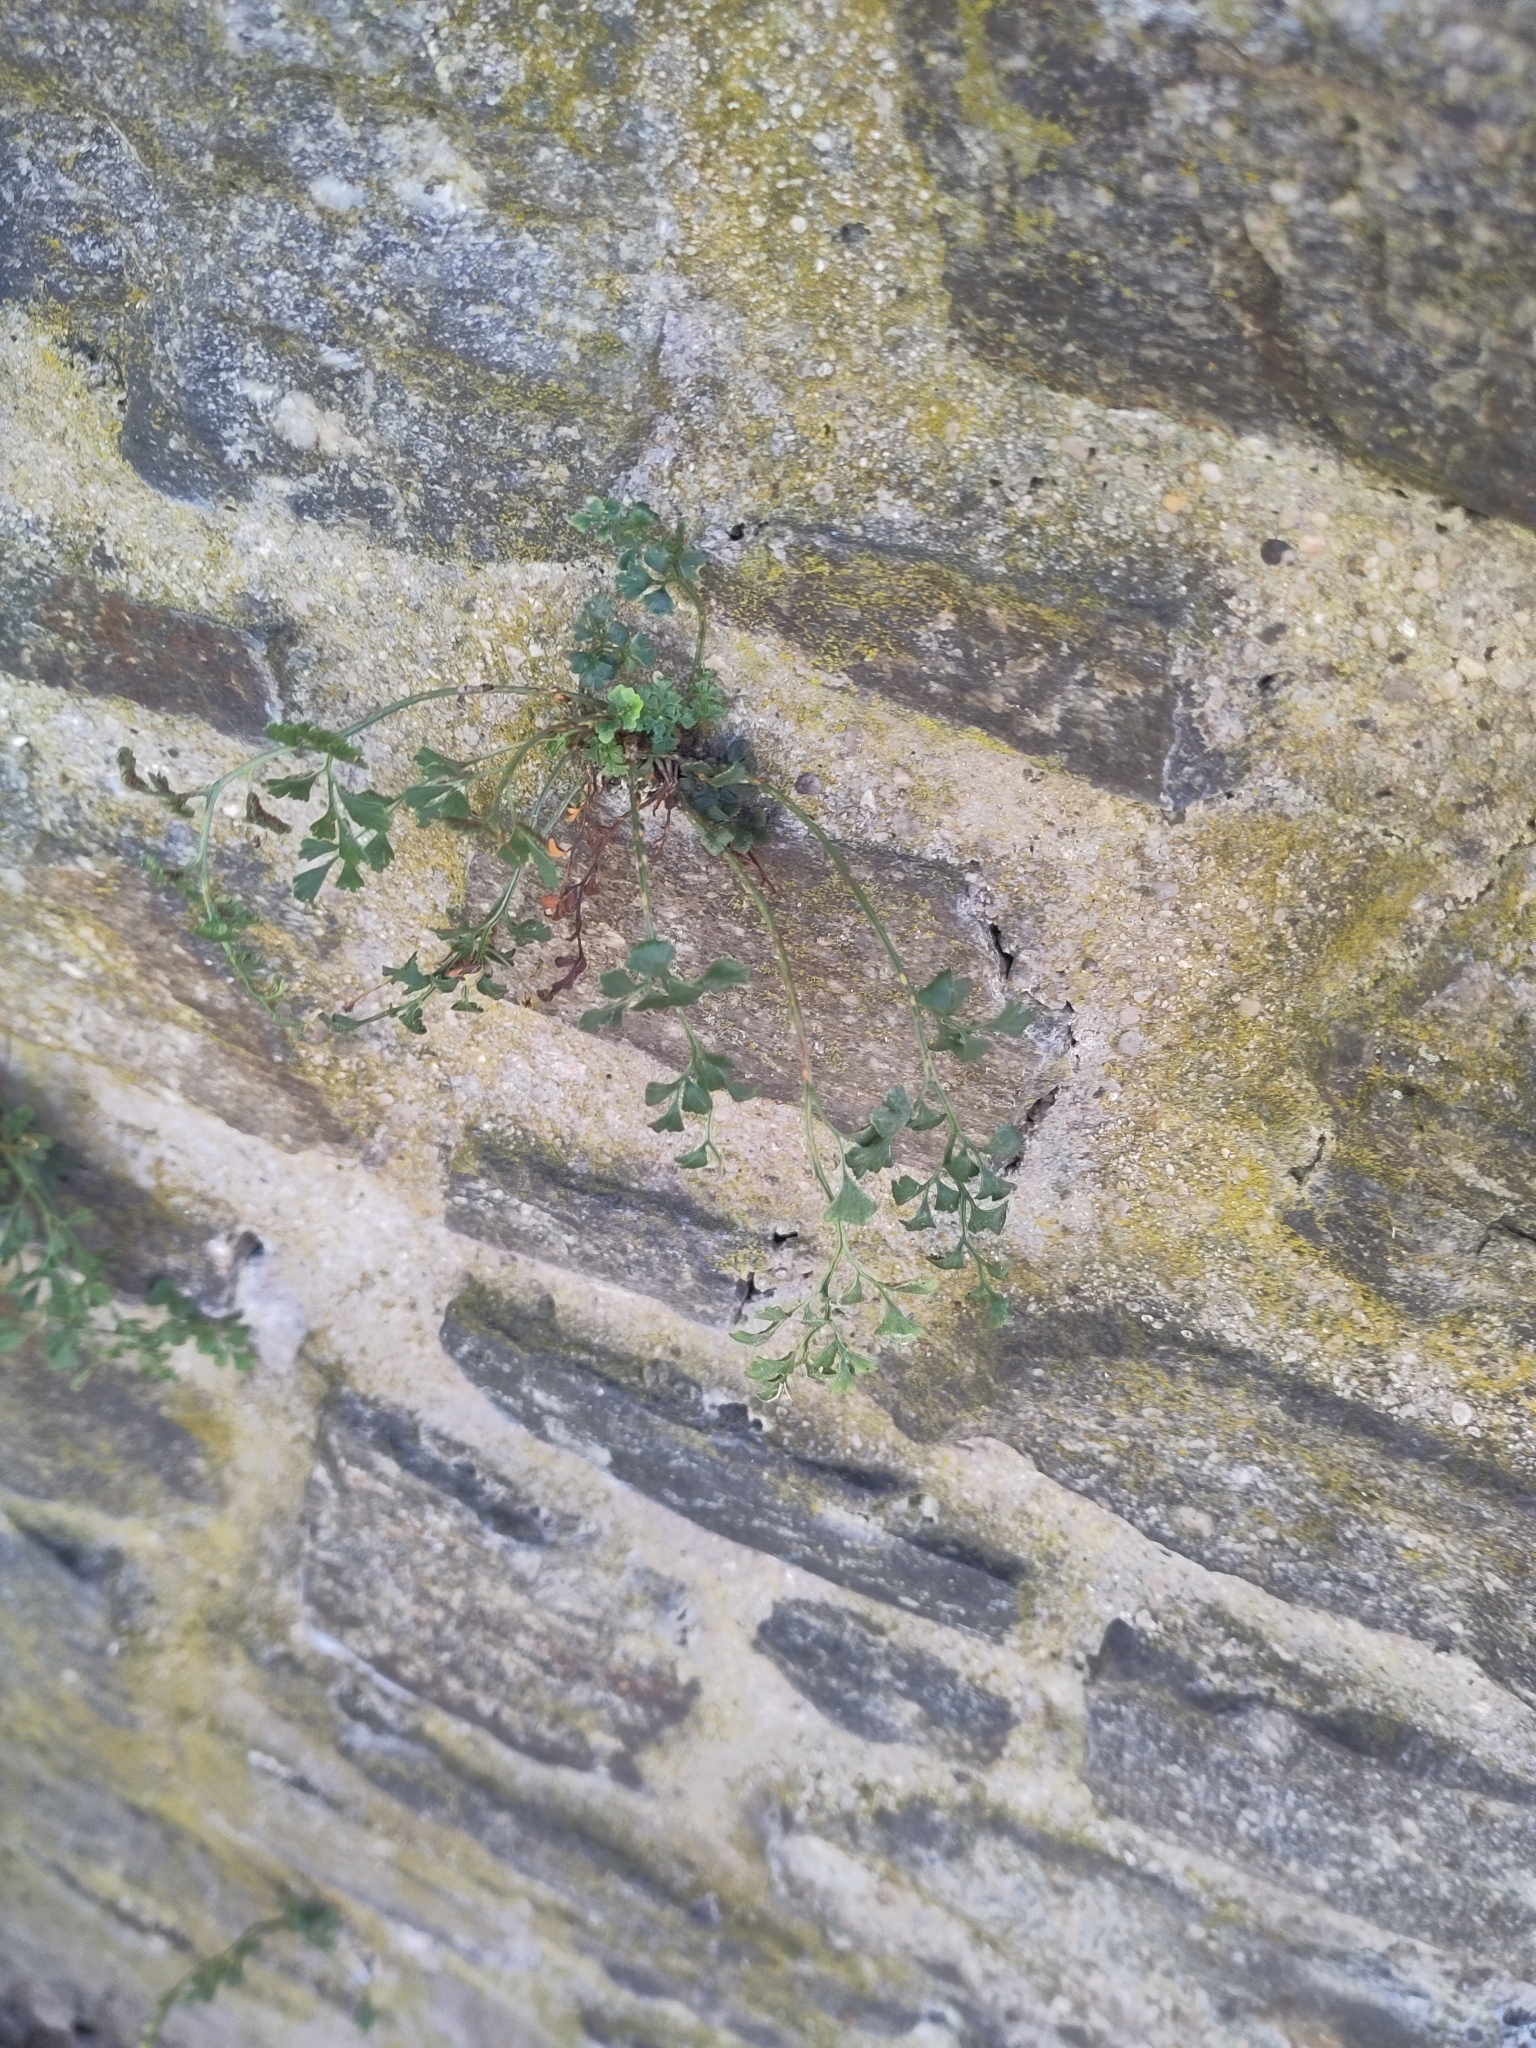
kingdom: Plantae
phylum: Tracheophyta
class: Polypodiopsida
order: Polypodiales
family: Aspleniaceae
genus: Asplenium
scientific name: Asplenium ruta-muraria
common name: Wall-rue
